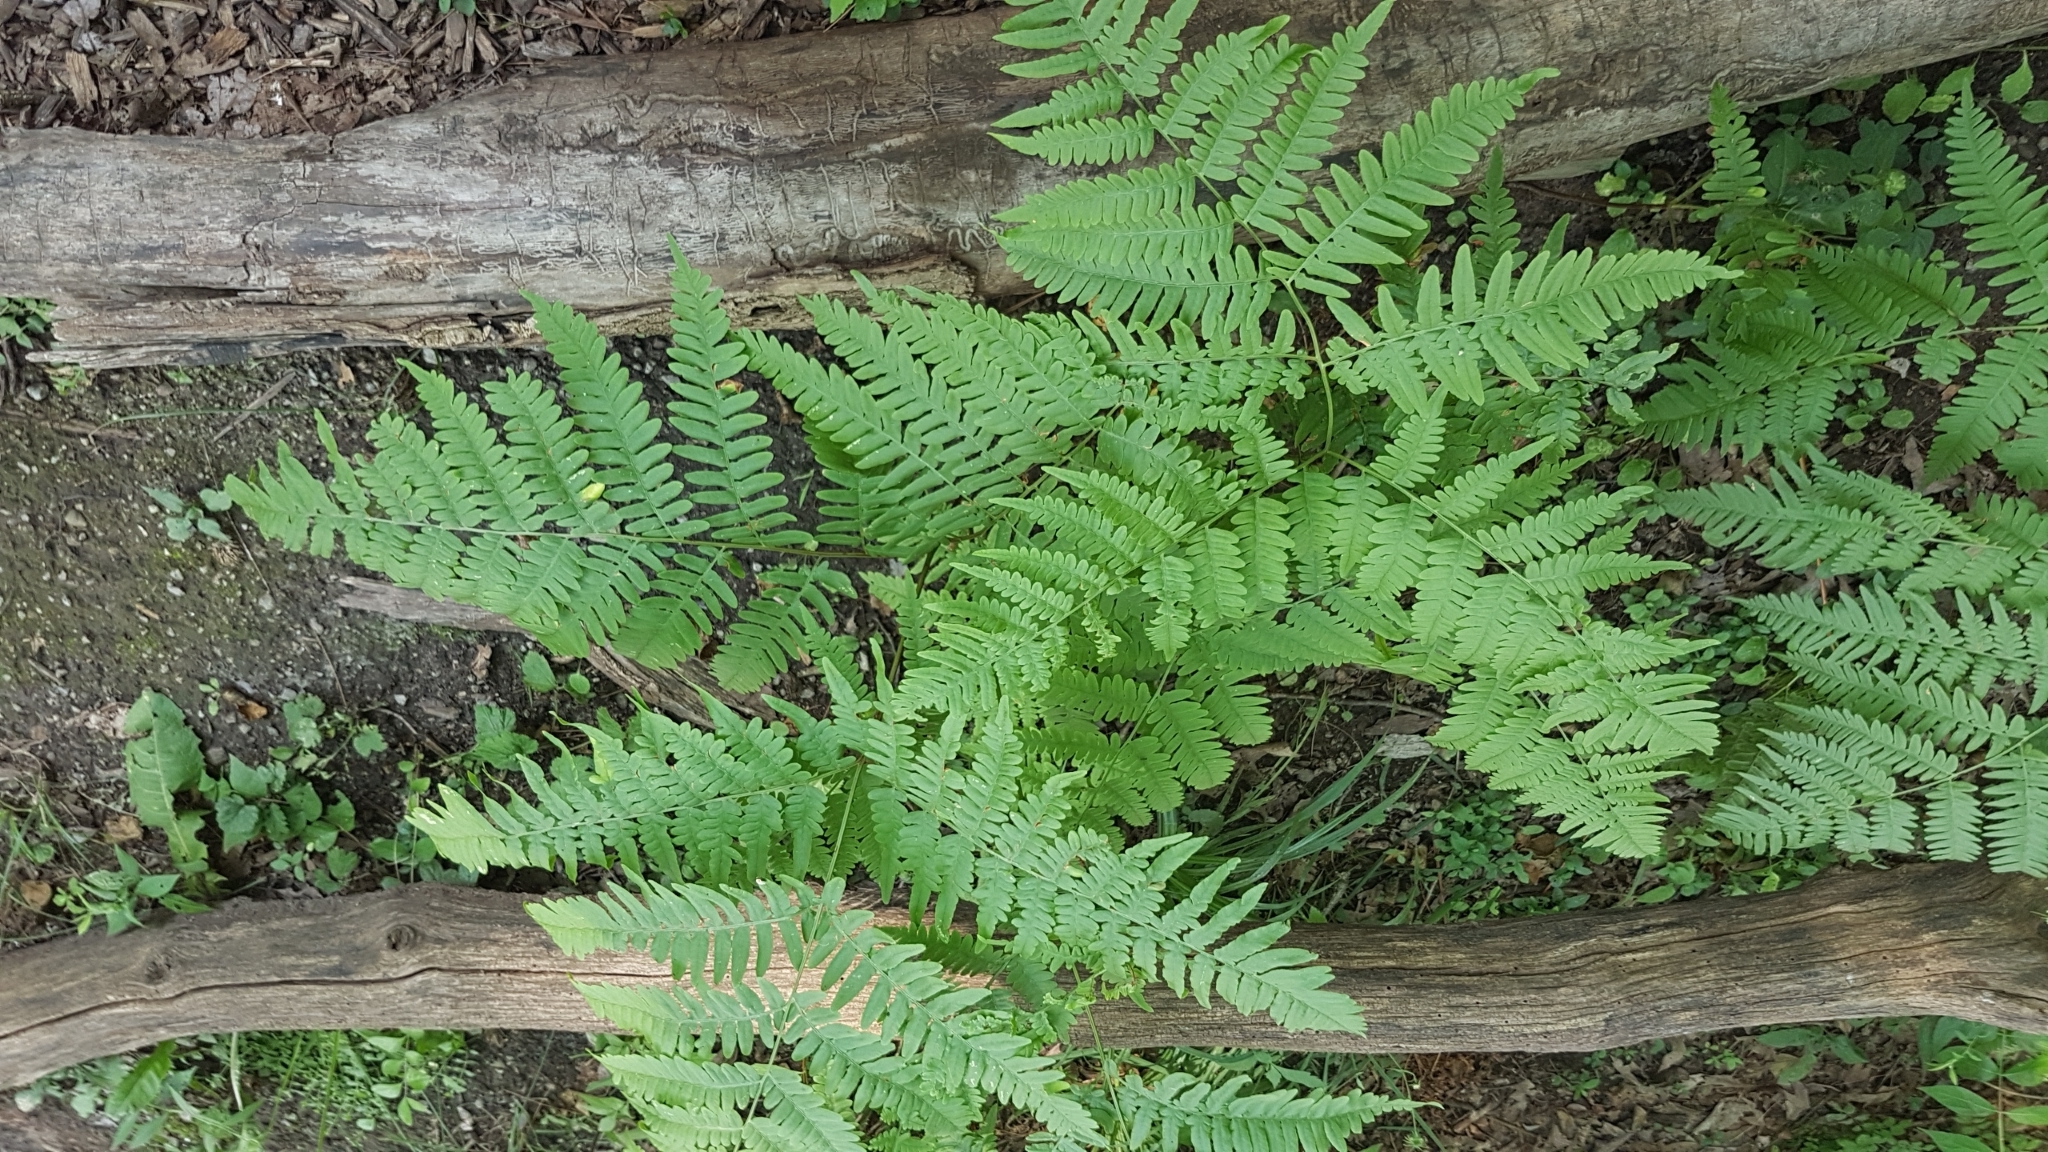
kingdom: Plantae
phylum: Tracheophyta
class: Polypodiopsida
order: Polypodiales
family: Dennstaedtiaceae
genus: Pteridium
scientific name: Pteridium aquilinum
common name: Bracken
